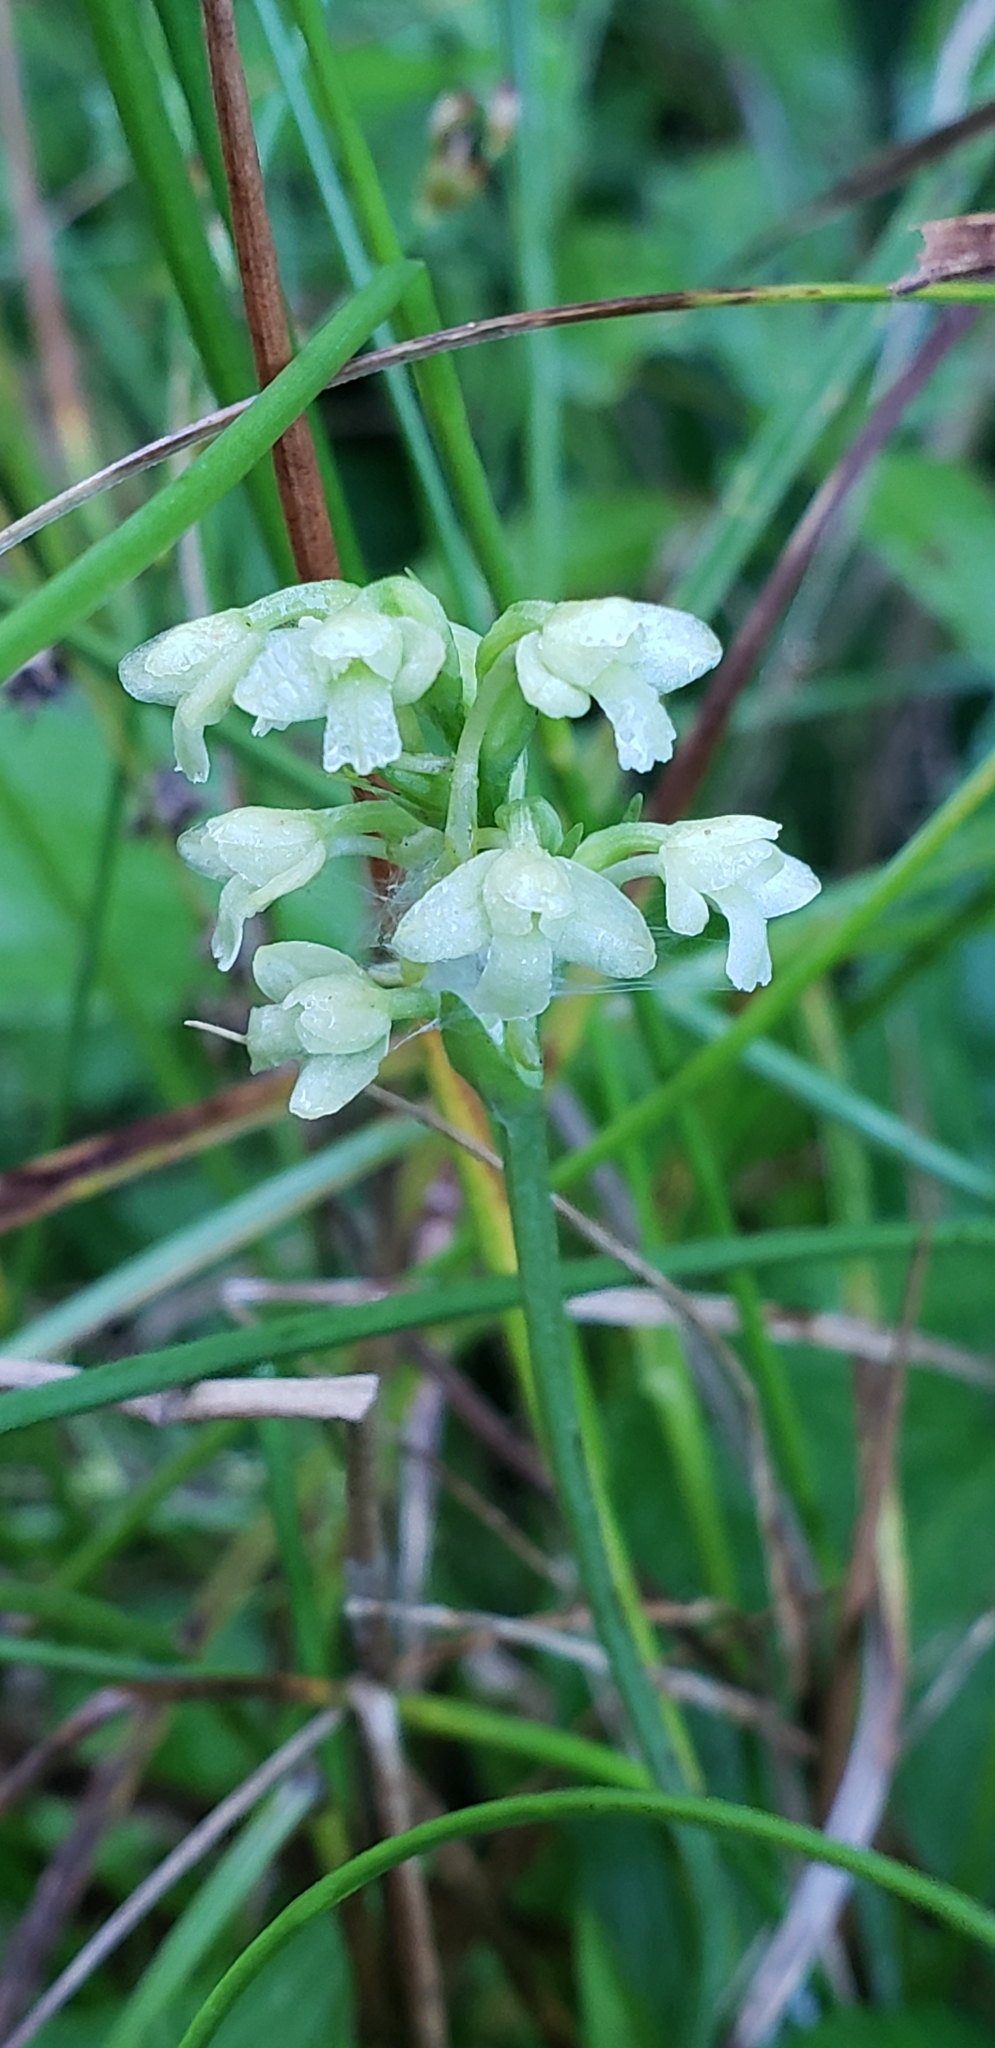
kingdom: Plantae
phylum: Tracheophyta
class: Liliopsida
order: Asparagales
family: Orchidaceae
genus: Platanthera
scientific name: Platanthera clavellata
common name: Club-spur orchid
